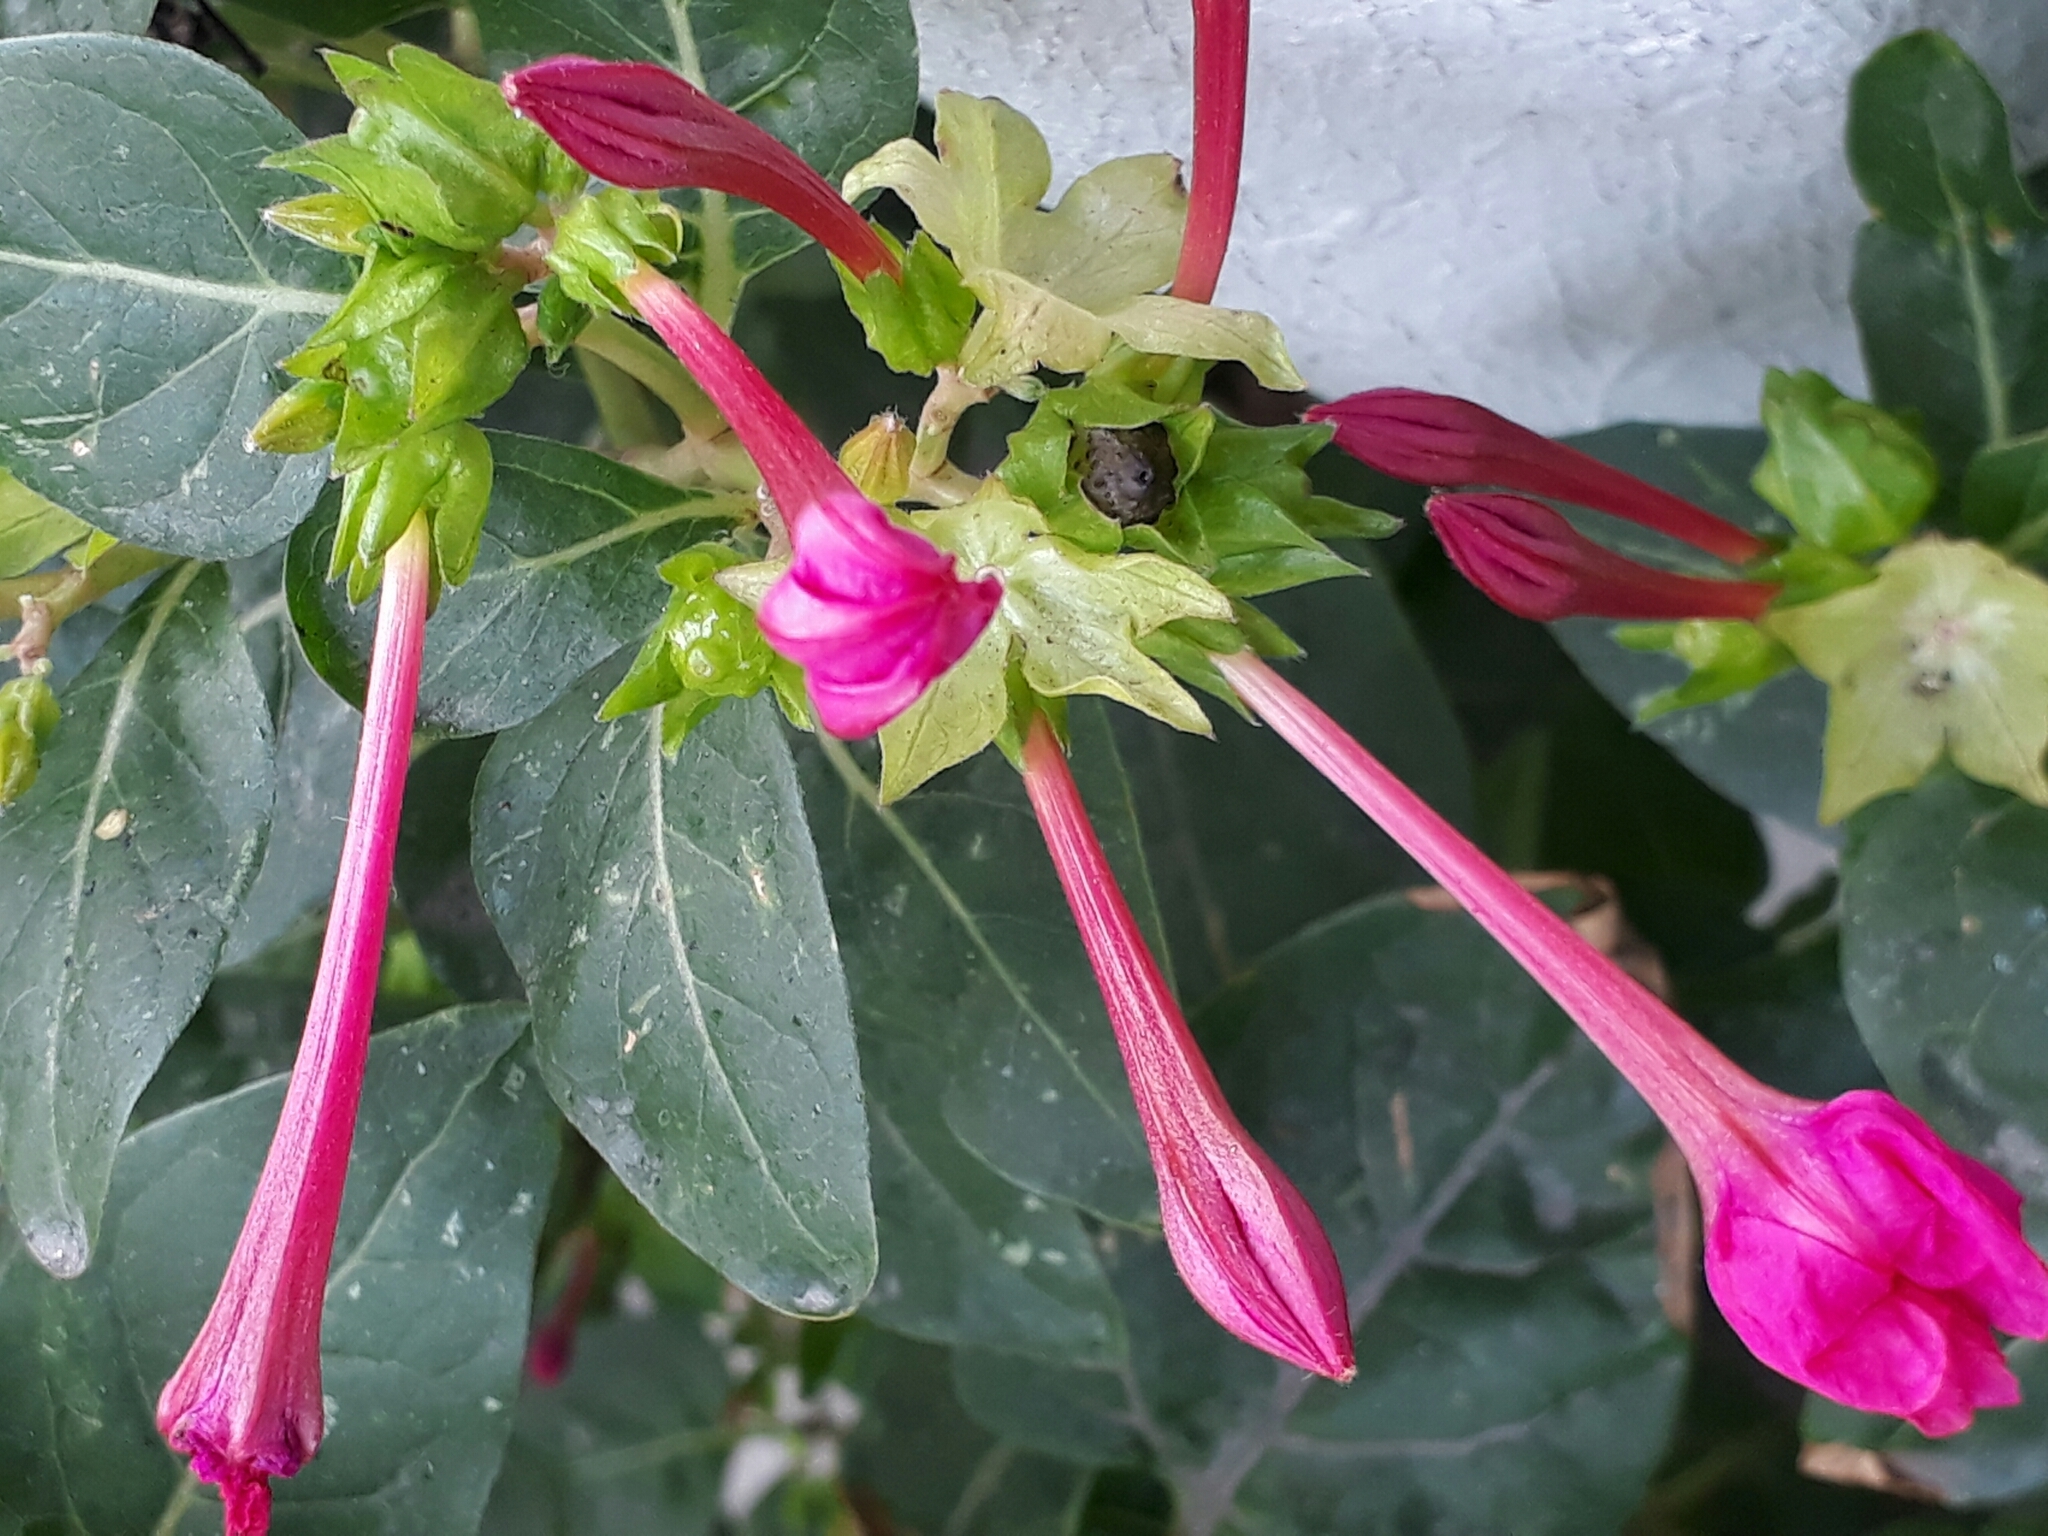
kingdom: Plantae
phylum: Tracheophyta
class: Magnoliopsida
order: Caryophyllales
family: Nyctaginaceae
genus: Mirabilis
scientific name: Mirabilis jalapa
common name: Marvel-of-peru
